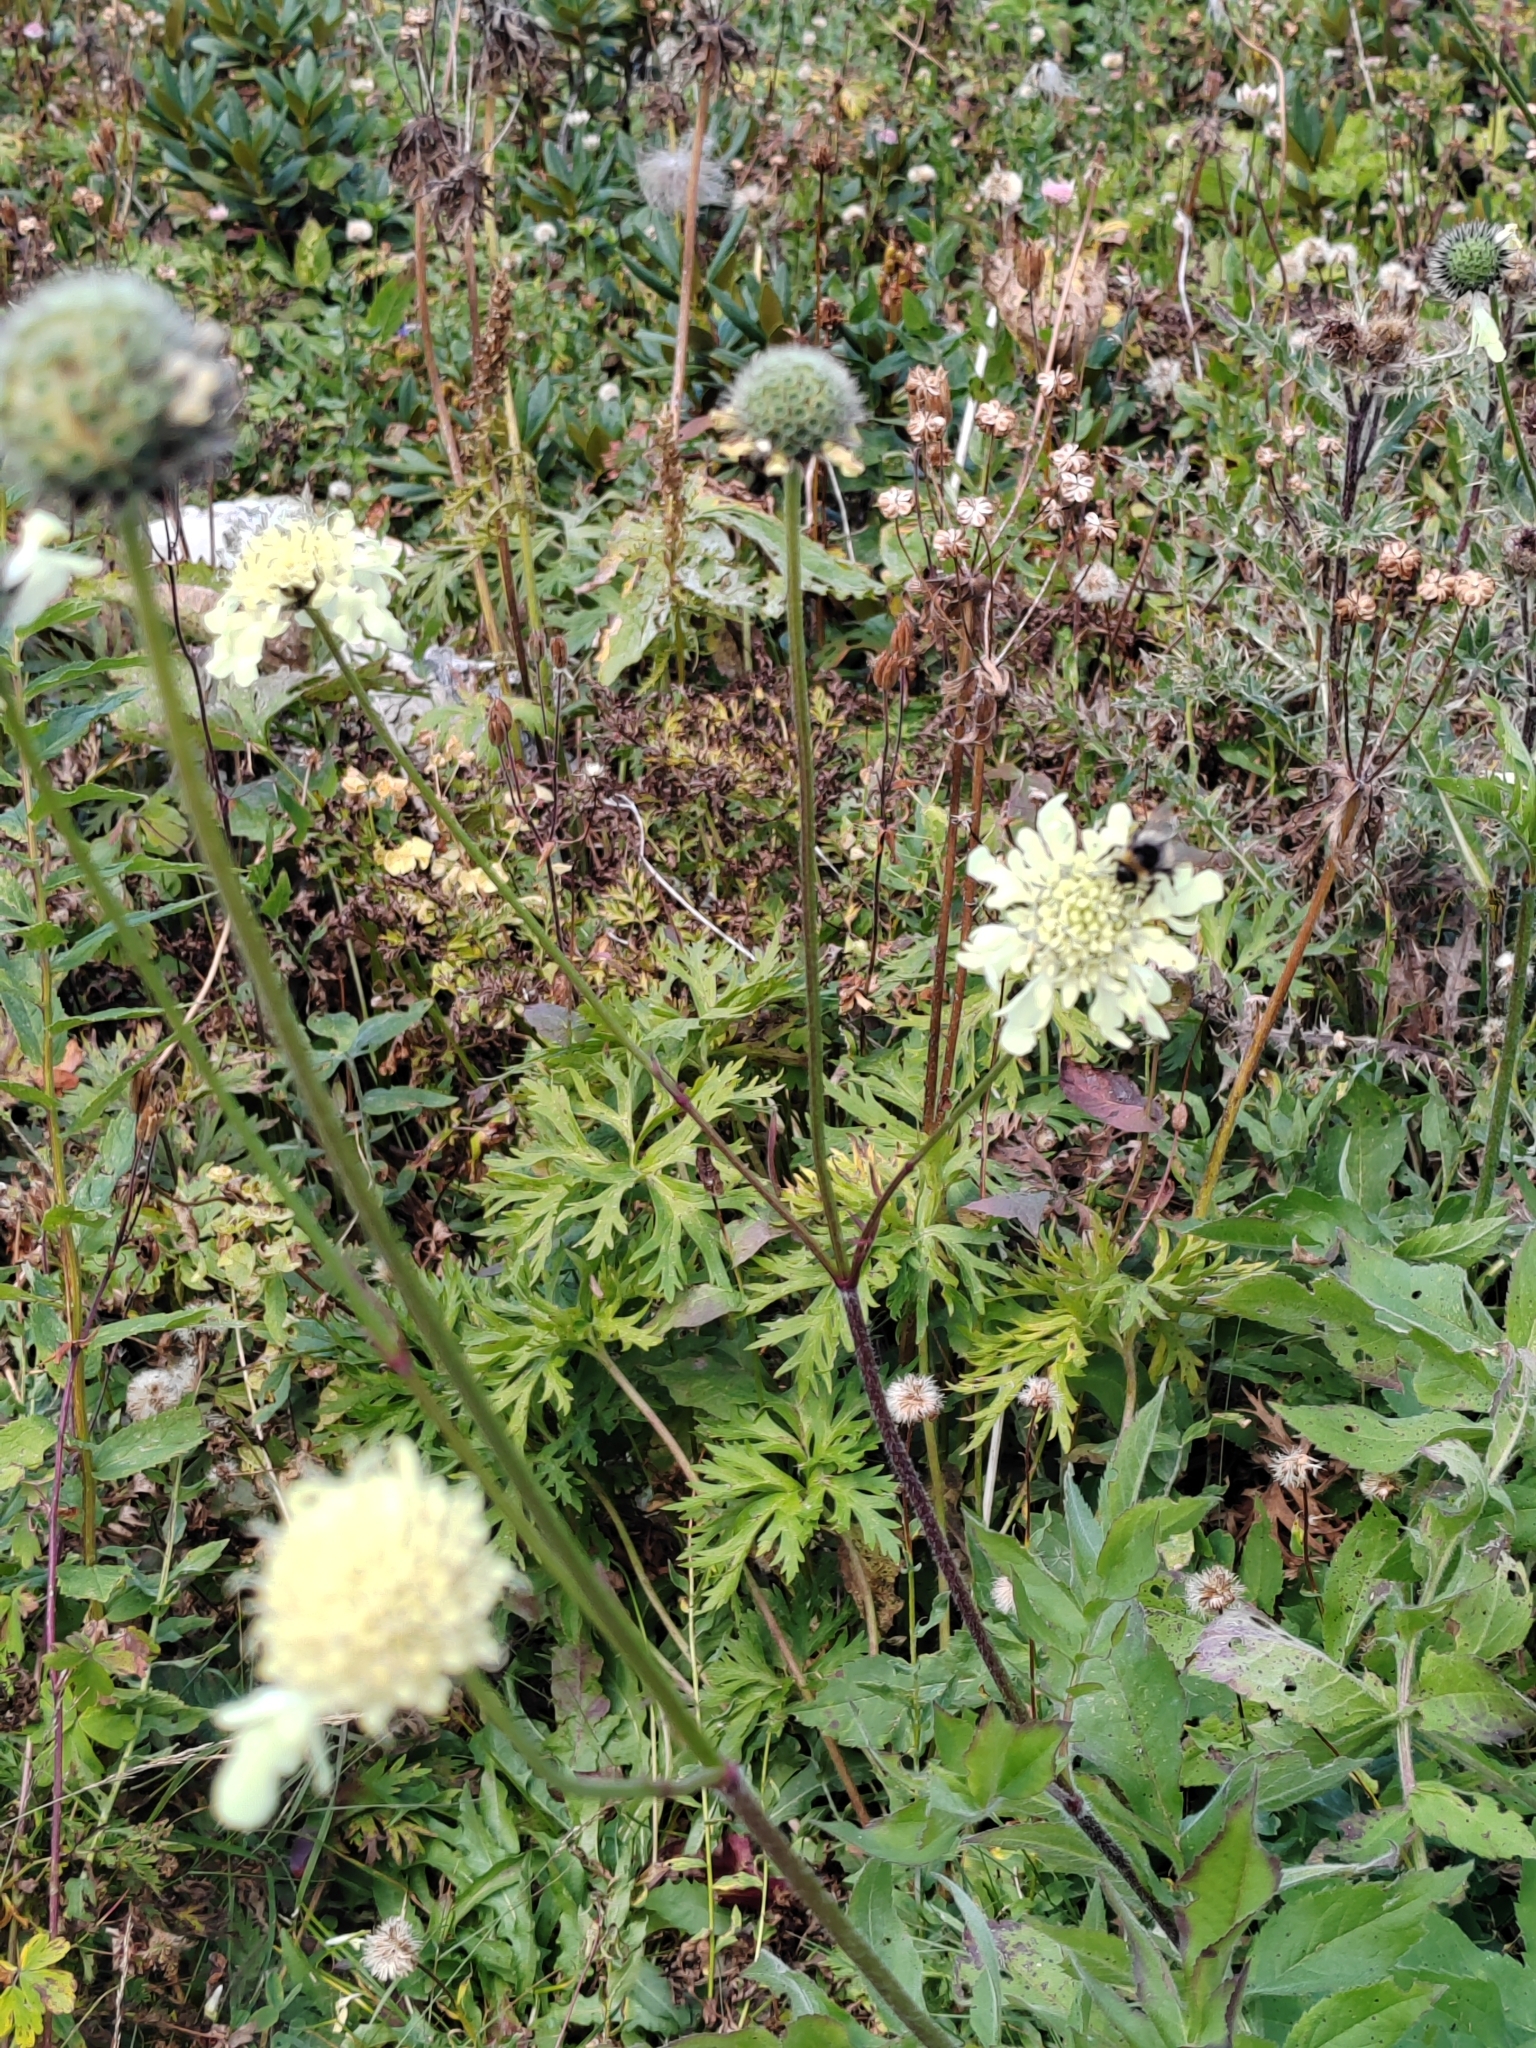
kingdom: Plantae
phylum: Tracheophyta
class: Magnoliopsida
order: Dipsacales
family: Caprifoliaceae
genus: Cephalaria
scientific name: Cephalaria gigantea
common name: Tatarian cephalaria
